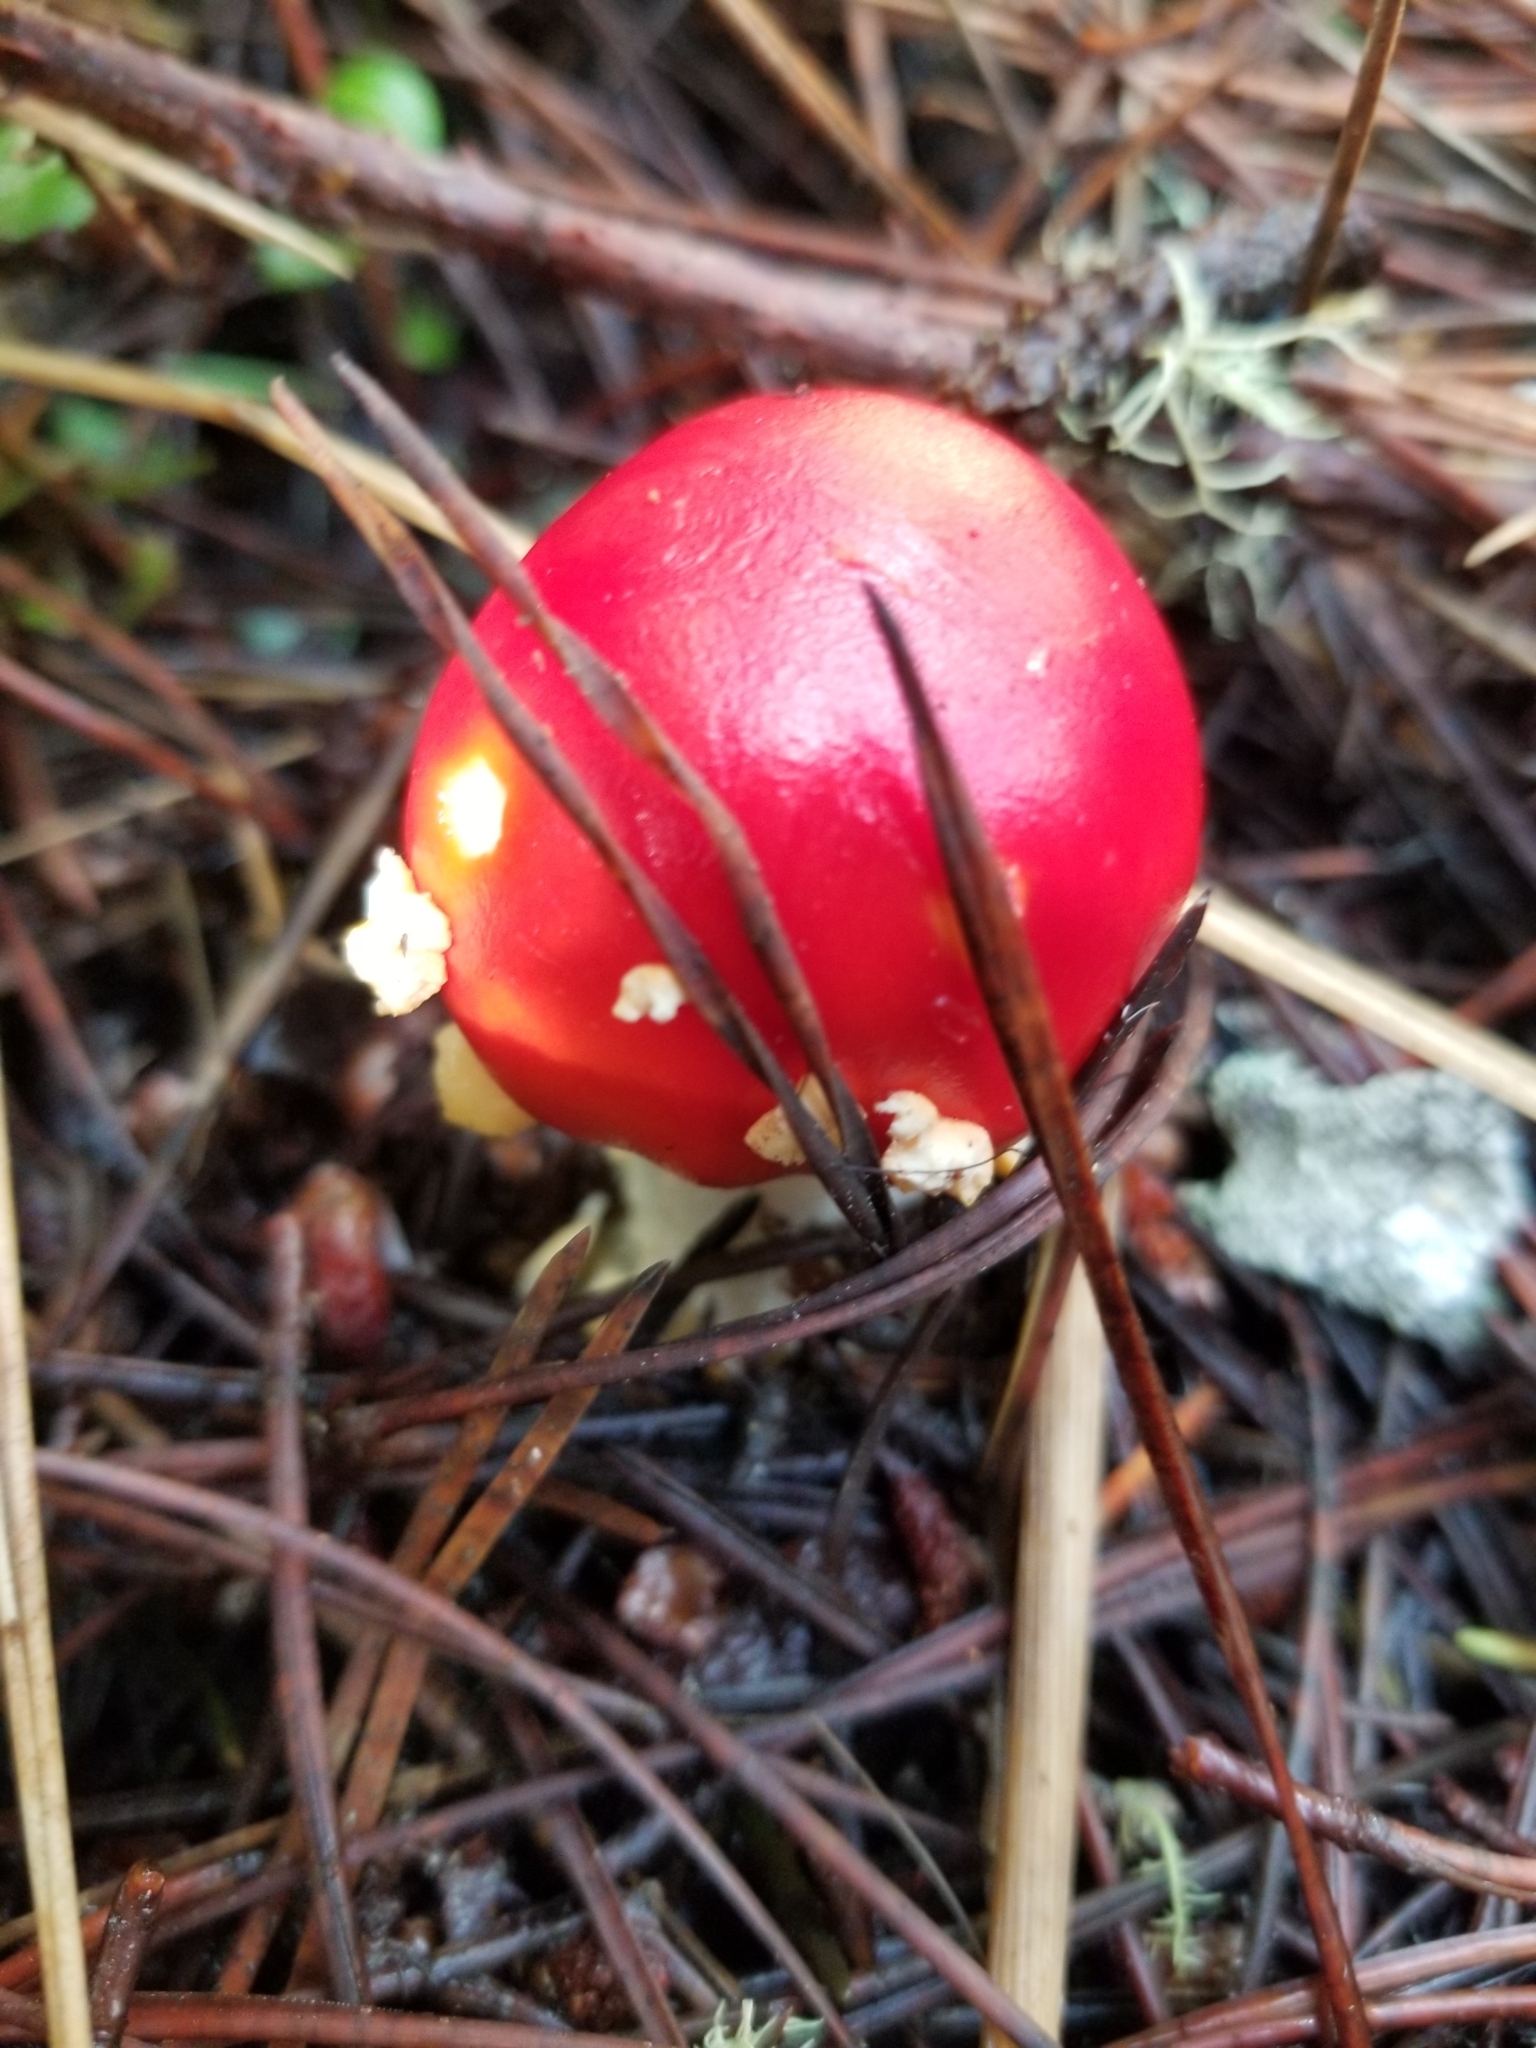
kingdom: Fungi
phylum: Basidiomycota
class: Agaricomycetes
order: Agaricales
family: Amanitaceae
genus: Amanita
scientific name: Amanita muscaria
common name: Fly agaric
